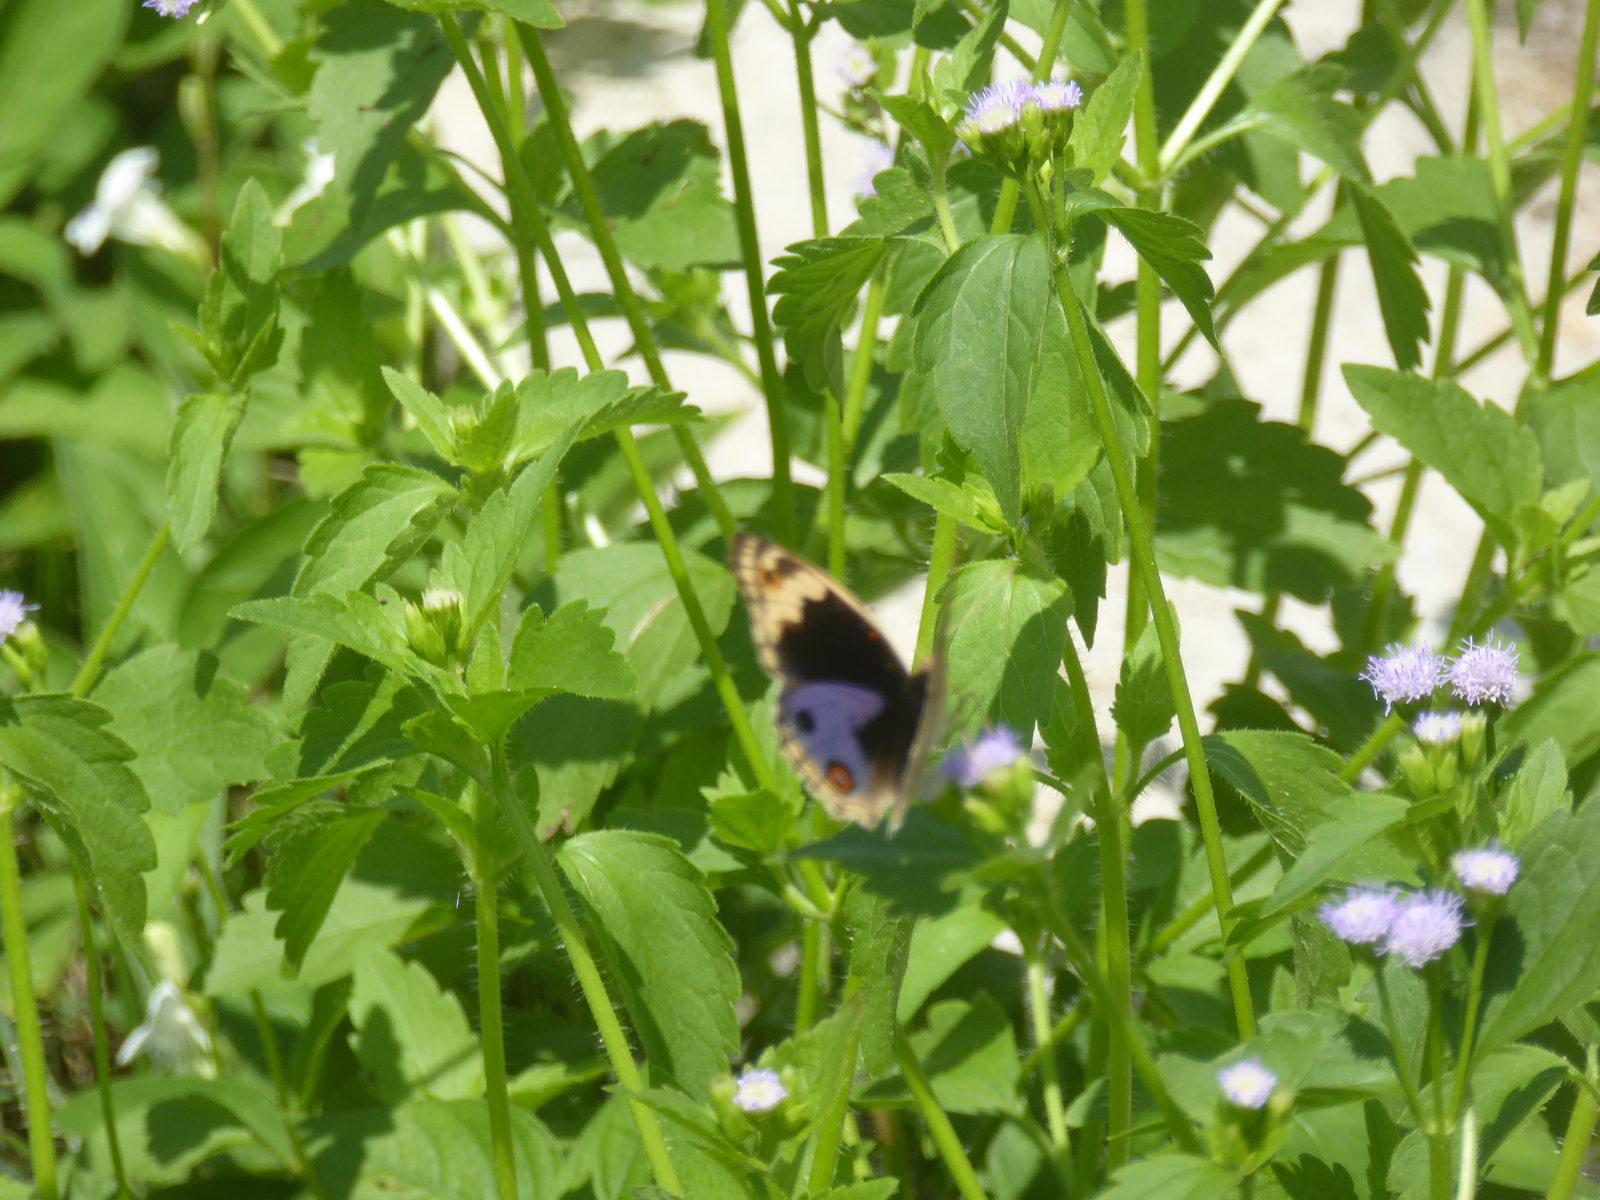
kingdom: Animalia
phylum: Arthropoda
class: Insecta
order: Lepidoptera
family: Nymphalidae
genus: Junonia
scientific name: Junonia orithya
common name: Blue pansy
